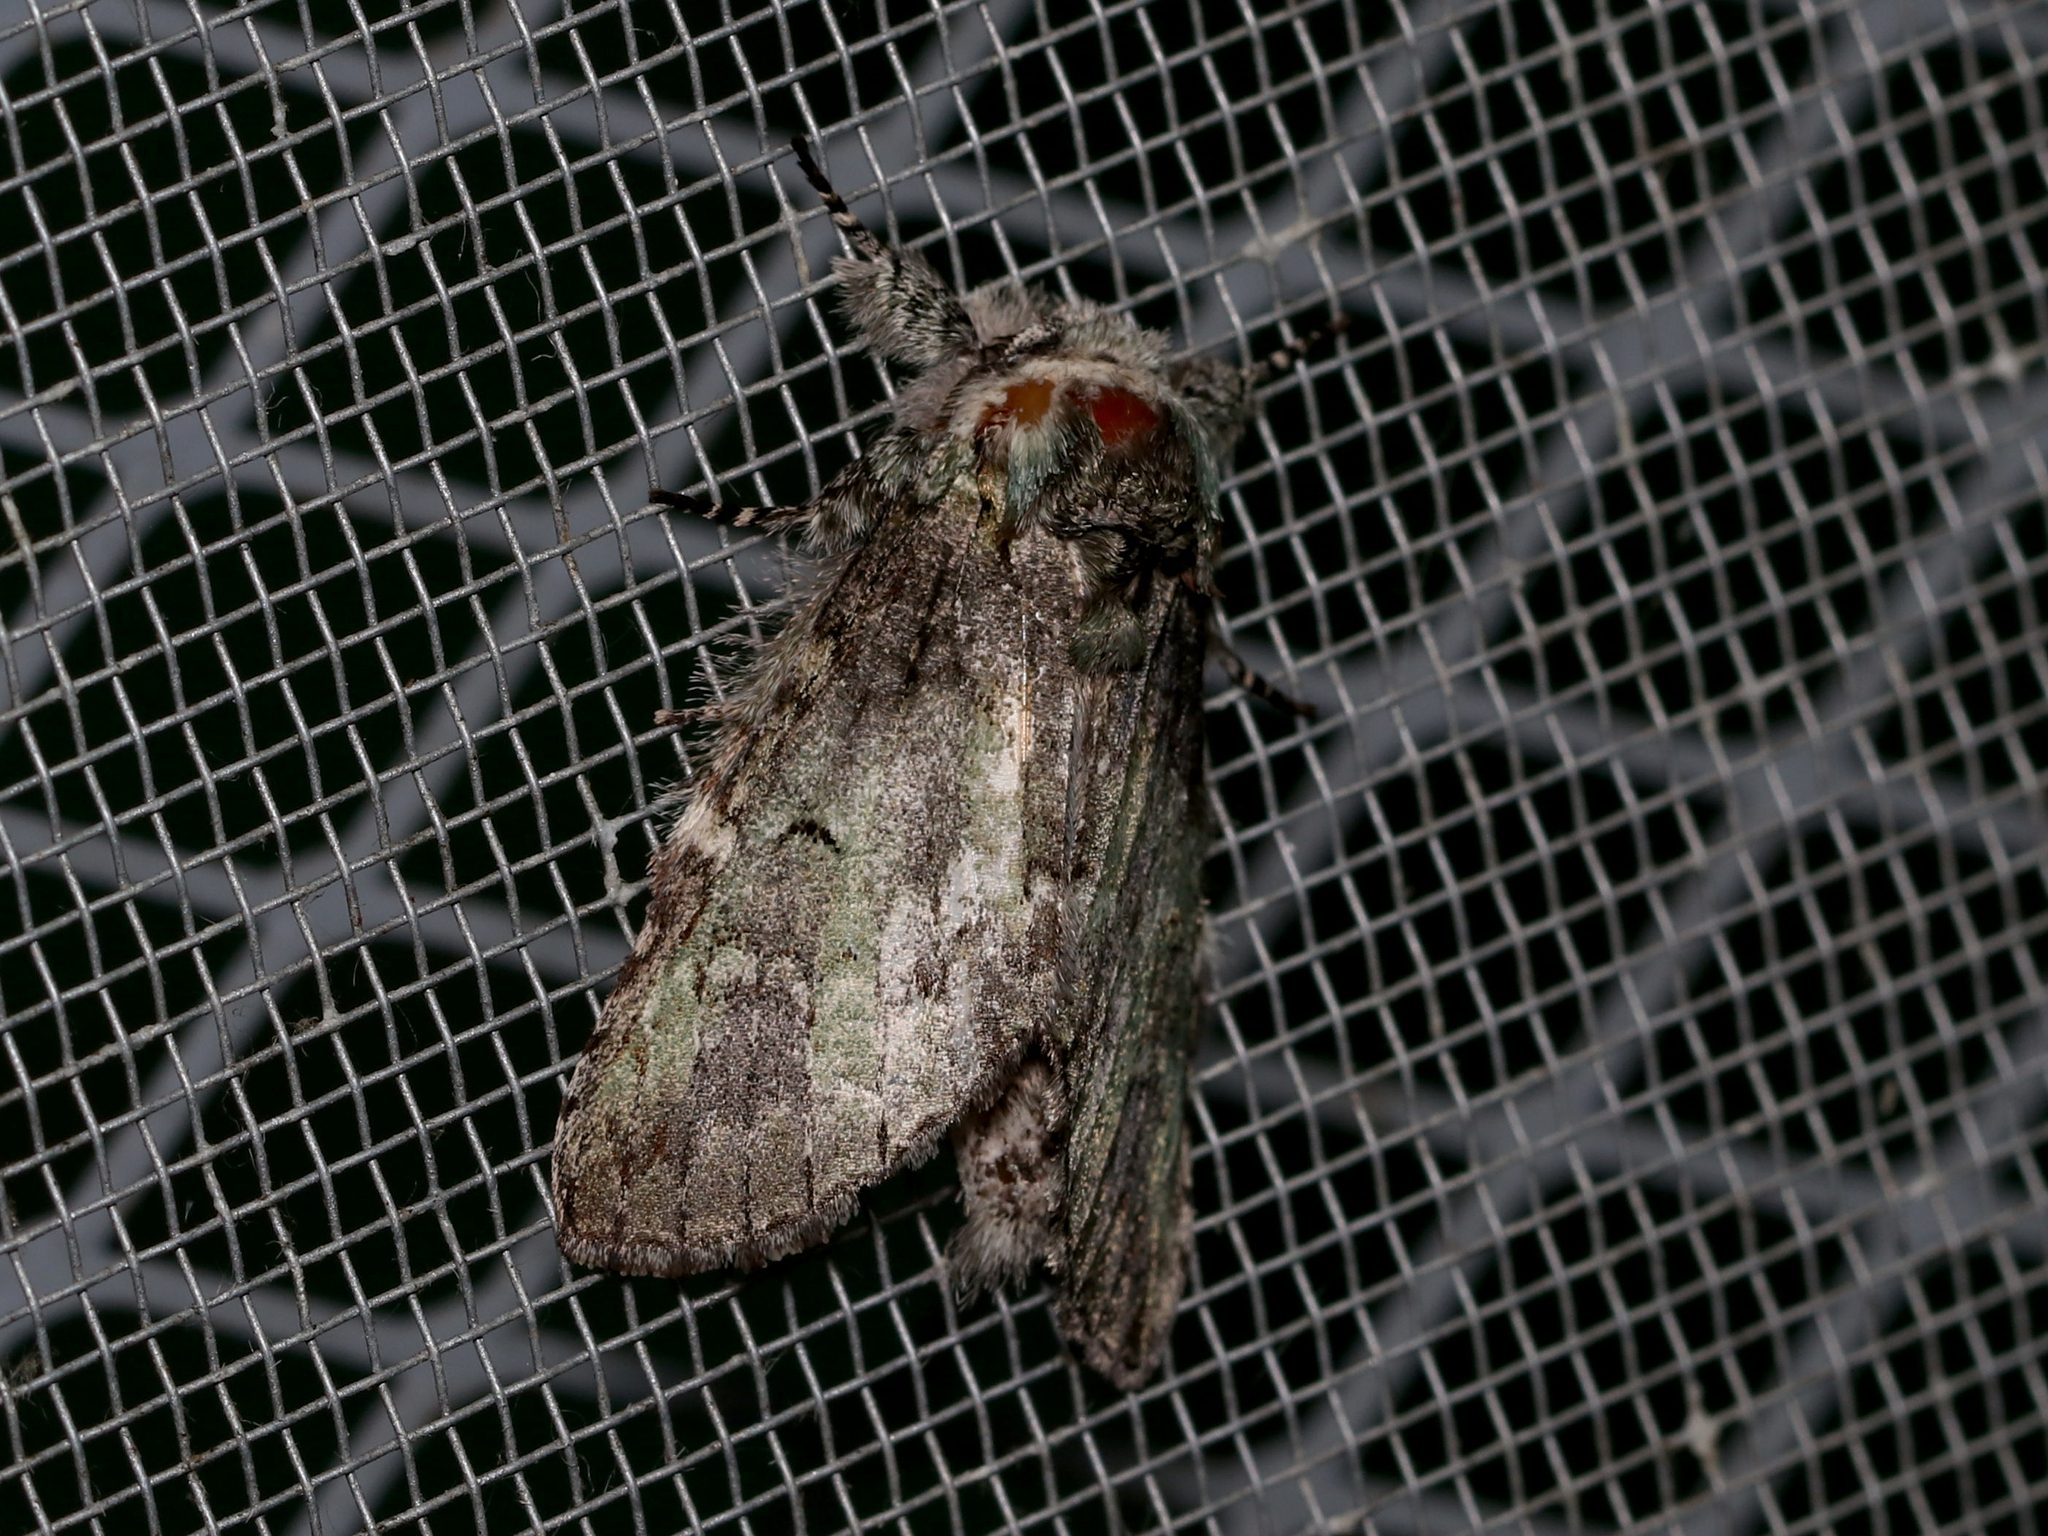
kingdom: Animalia
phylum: Arthropoda
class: Insecta
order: Lepidoptera
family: Notodontidae
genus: Macrurocampa
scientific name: Macrurocampa marthesia
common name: Mottled prominent
